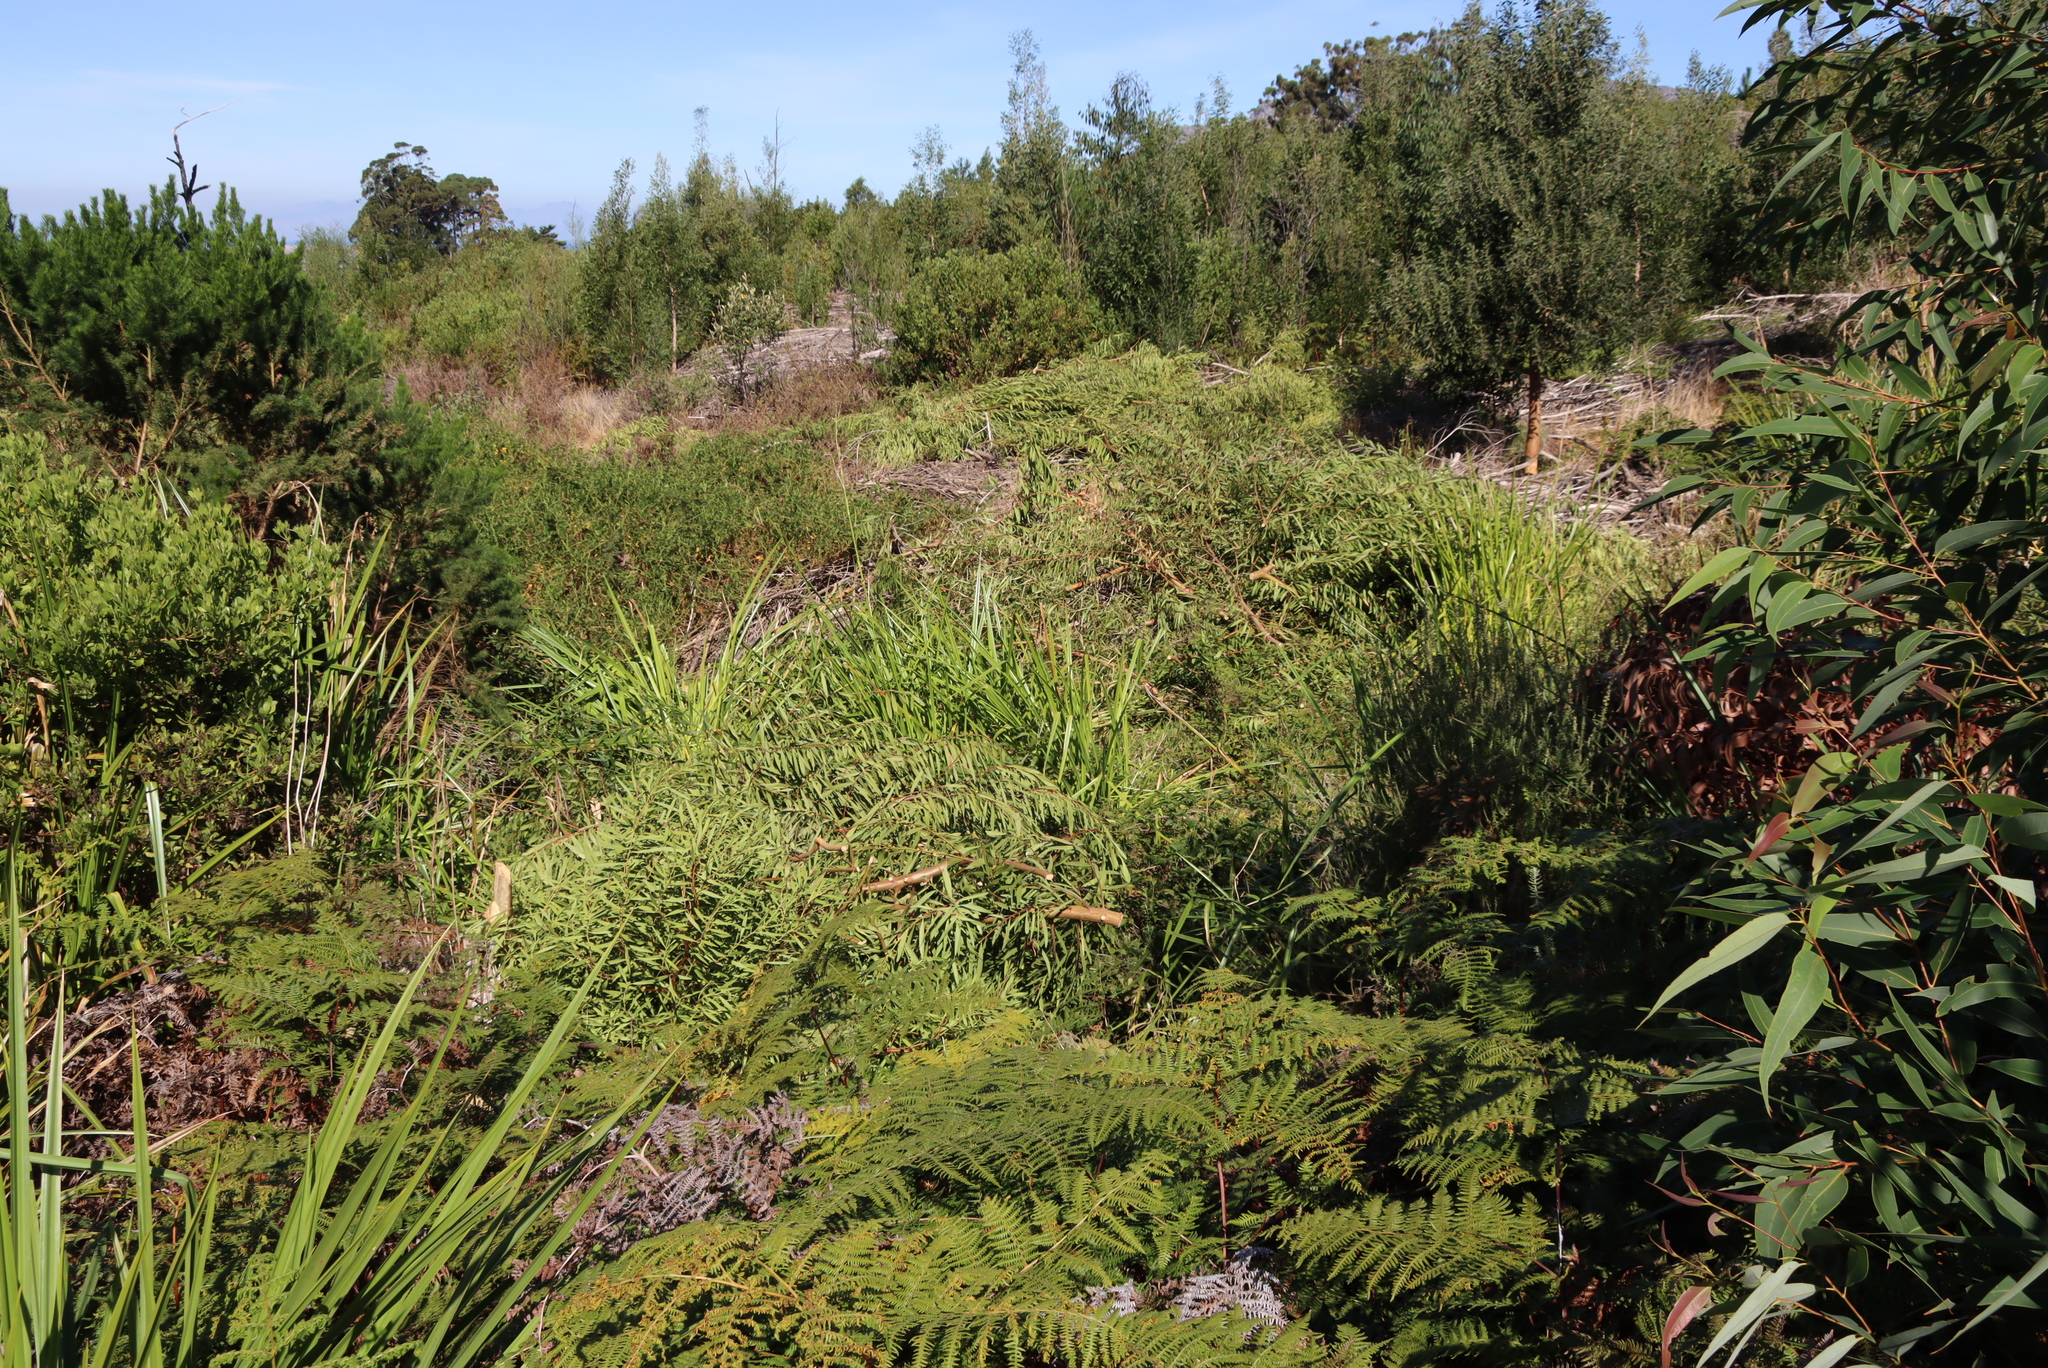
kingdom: Plantae
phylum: Tracheophyta
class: Magnoliopsida
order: Fabales
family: Fabaceae
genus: Acacia
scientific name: Acacia longifolia
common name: Sydney golden wattle
